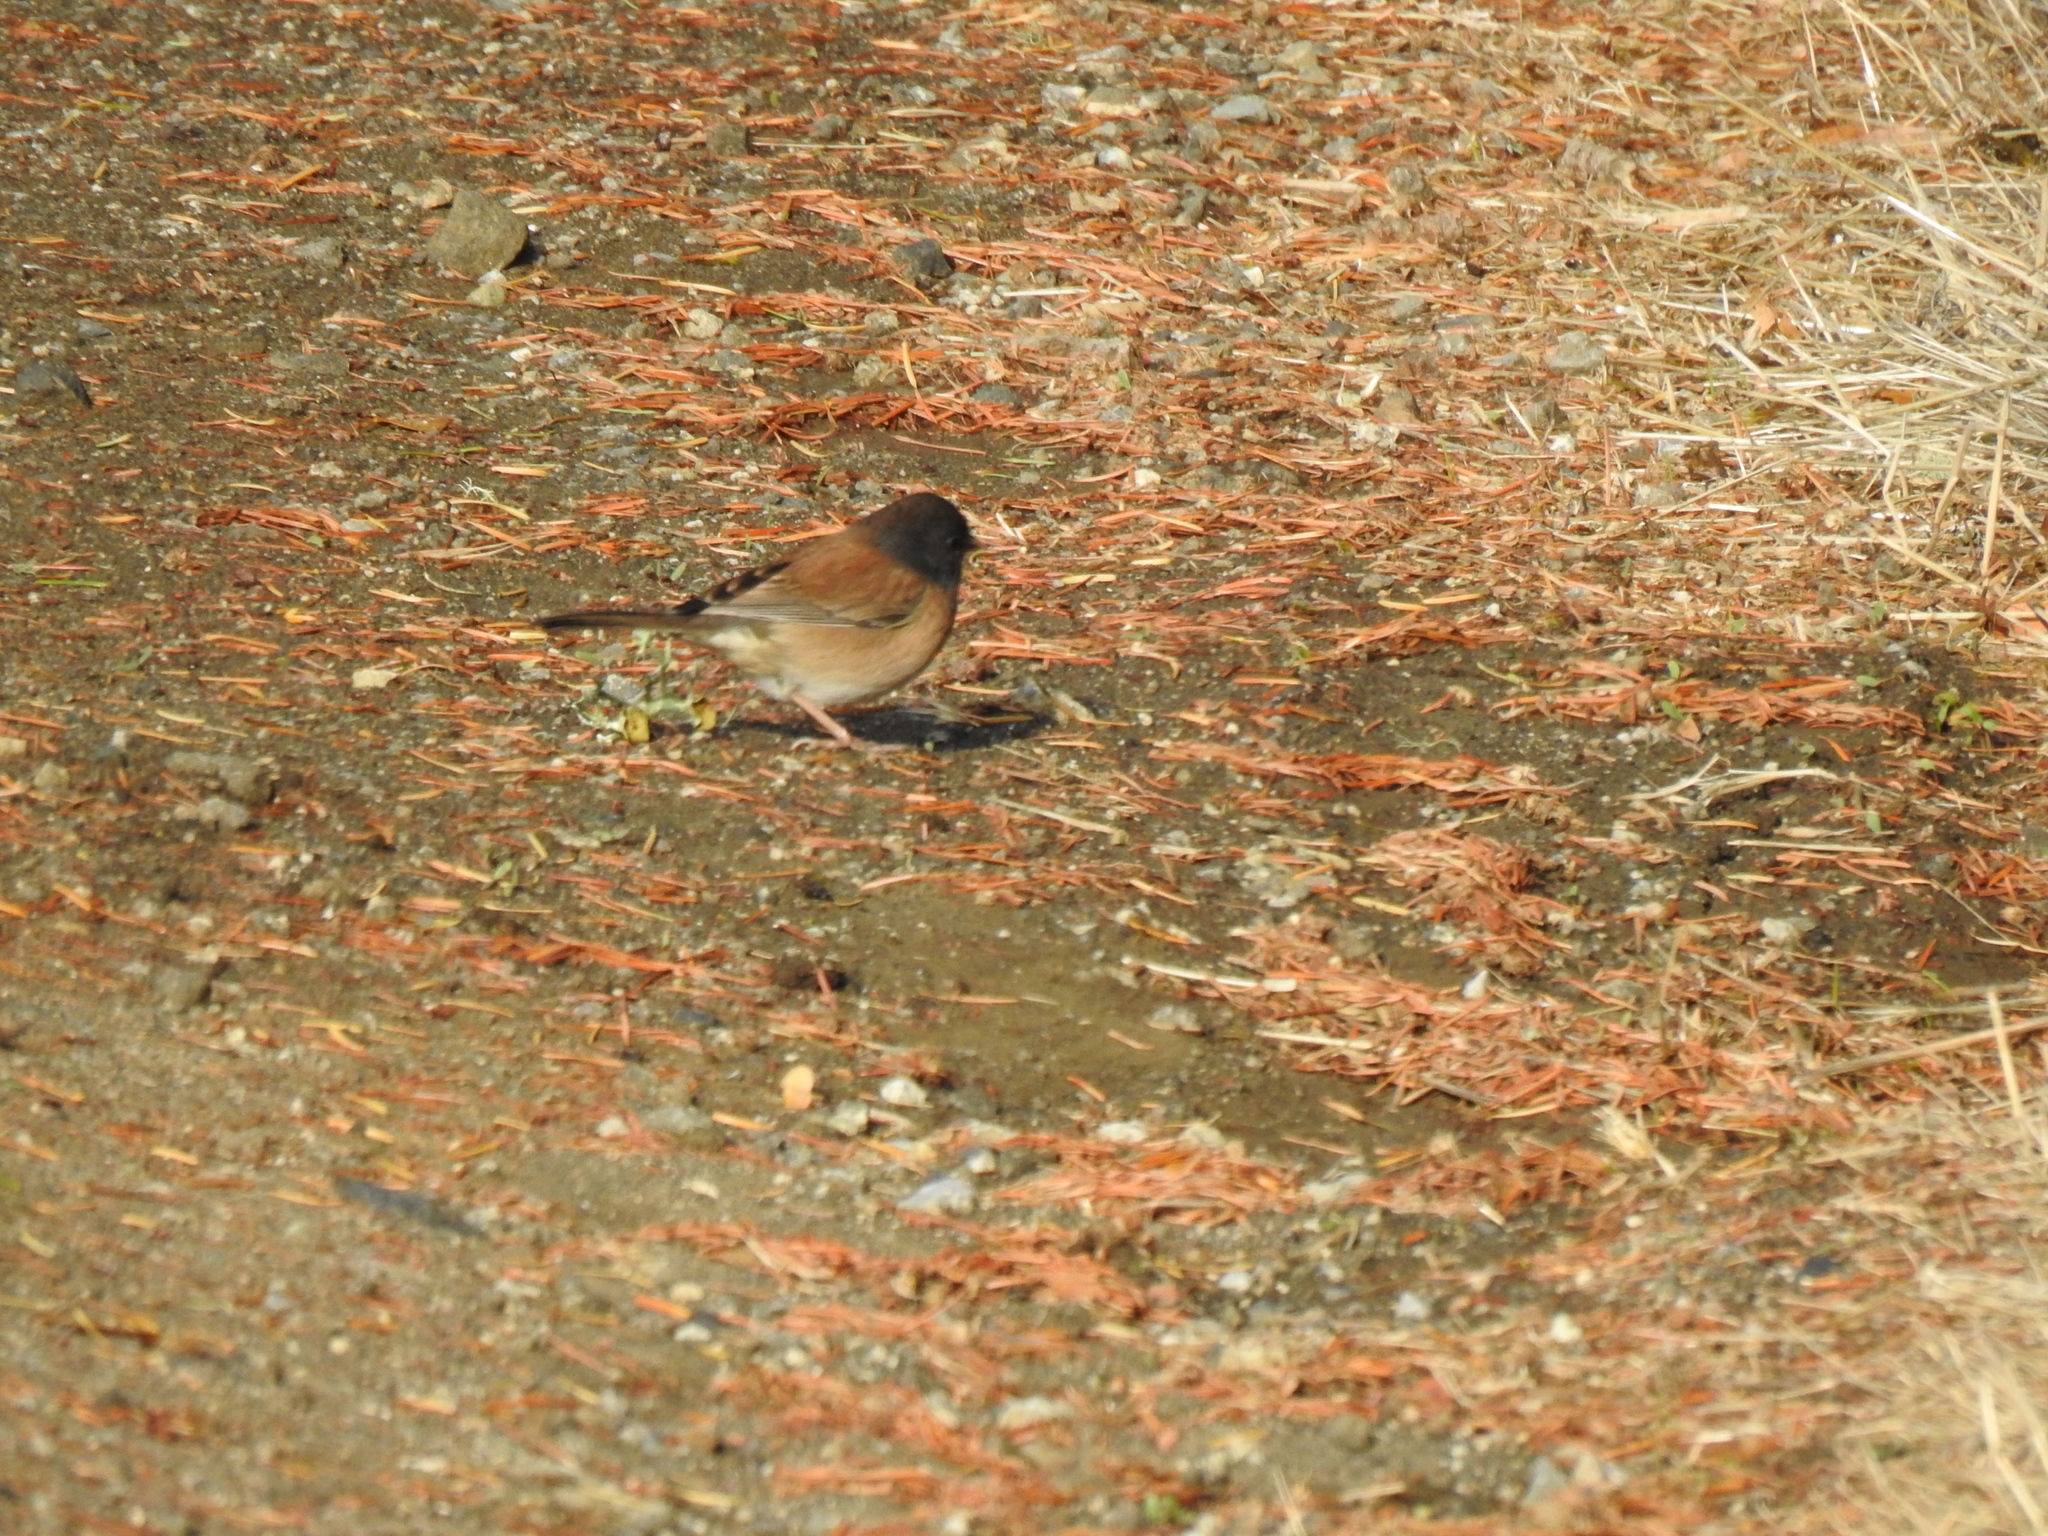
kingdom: Animalia
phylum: Chordata
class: Aves
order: Passeriformes
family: Passerellidae
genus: Junco
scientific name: Junco hyemalis
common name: Dark-eyed junco
